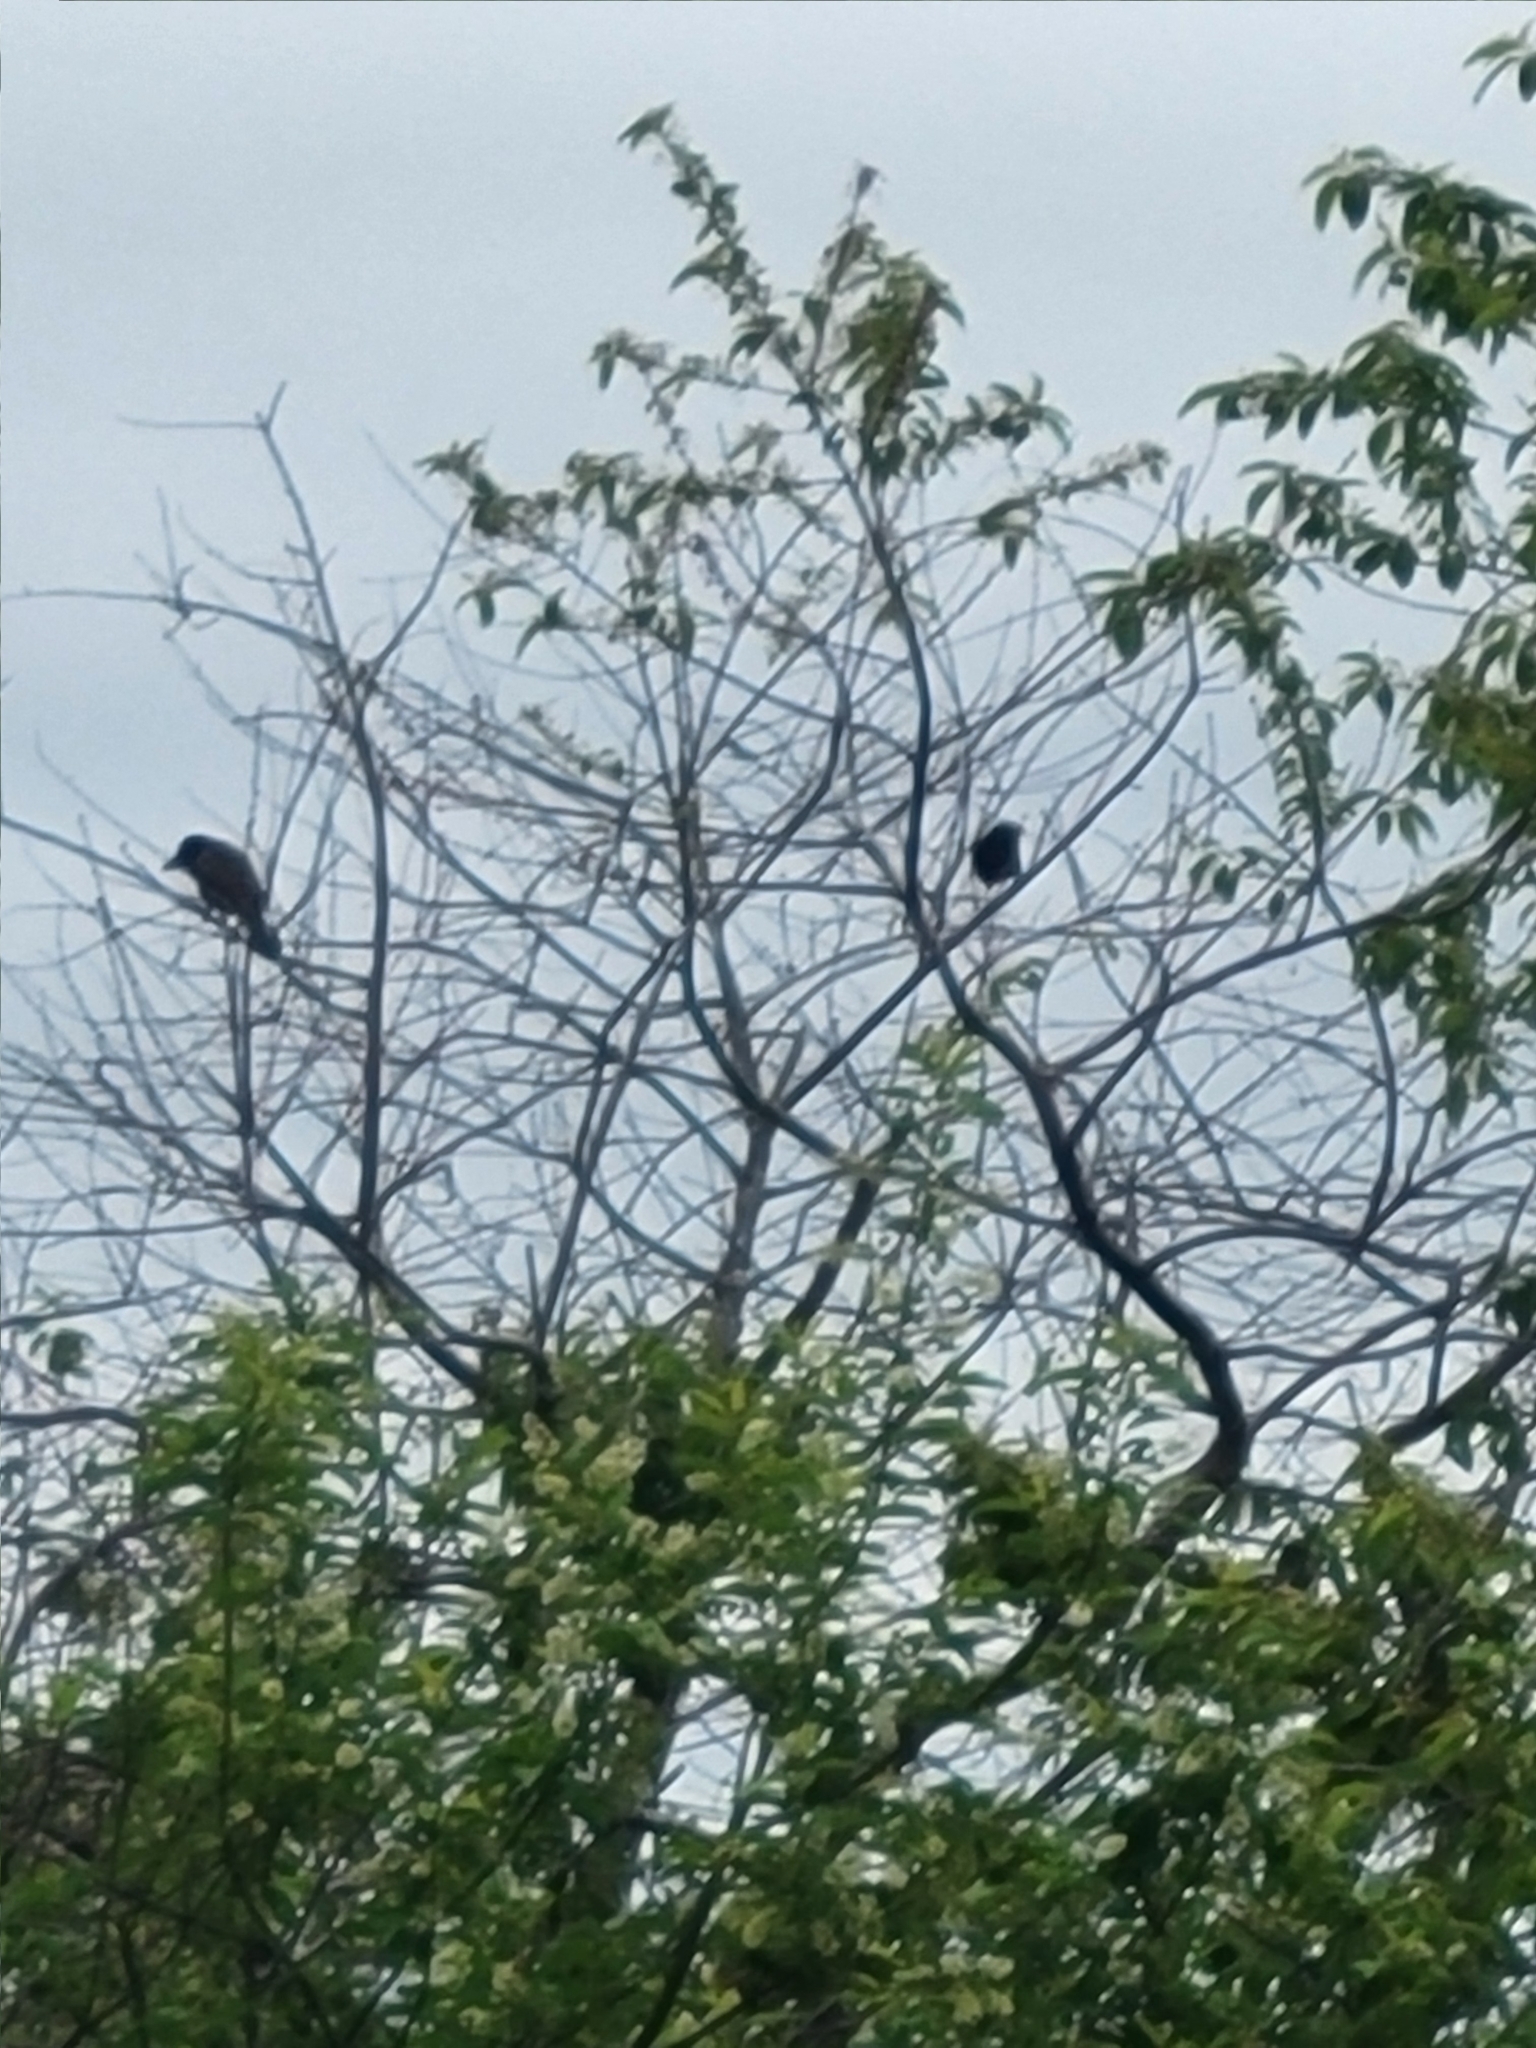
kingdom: Animalia
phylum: Chordata
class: Aves
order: Passeriformes
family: Icteridae
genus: Quiscalus
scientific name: Quiscalus quiscula
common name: Common grackle
